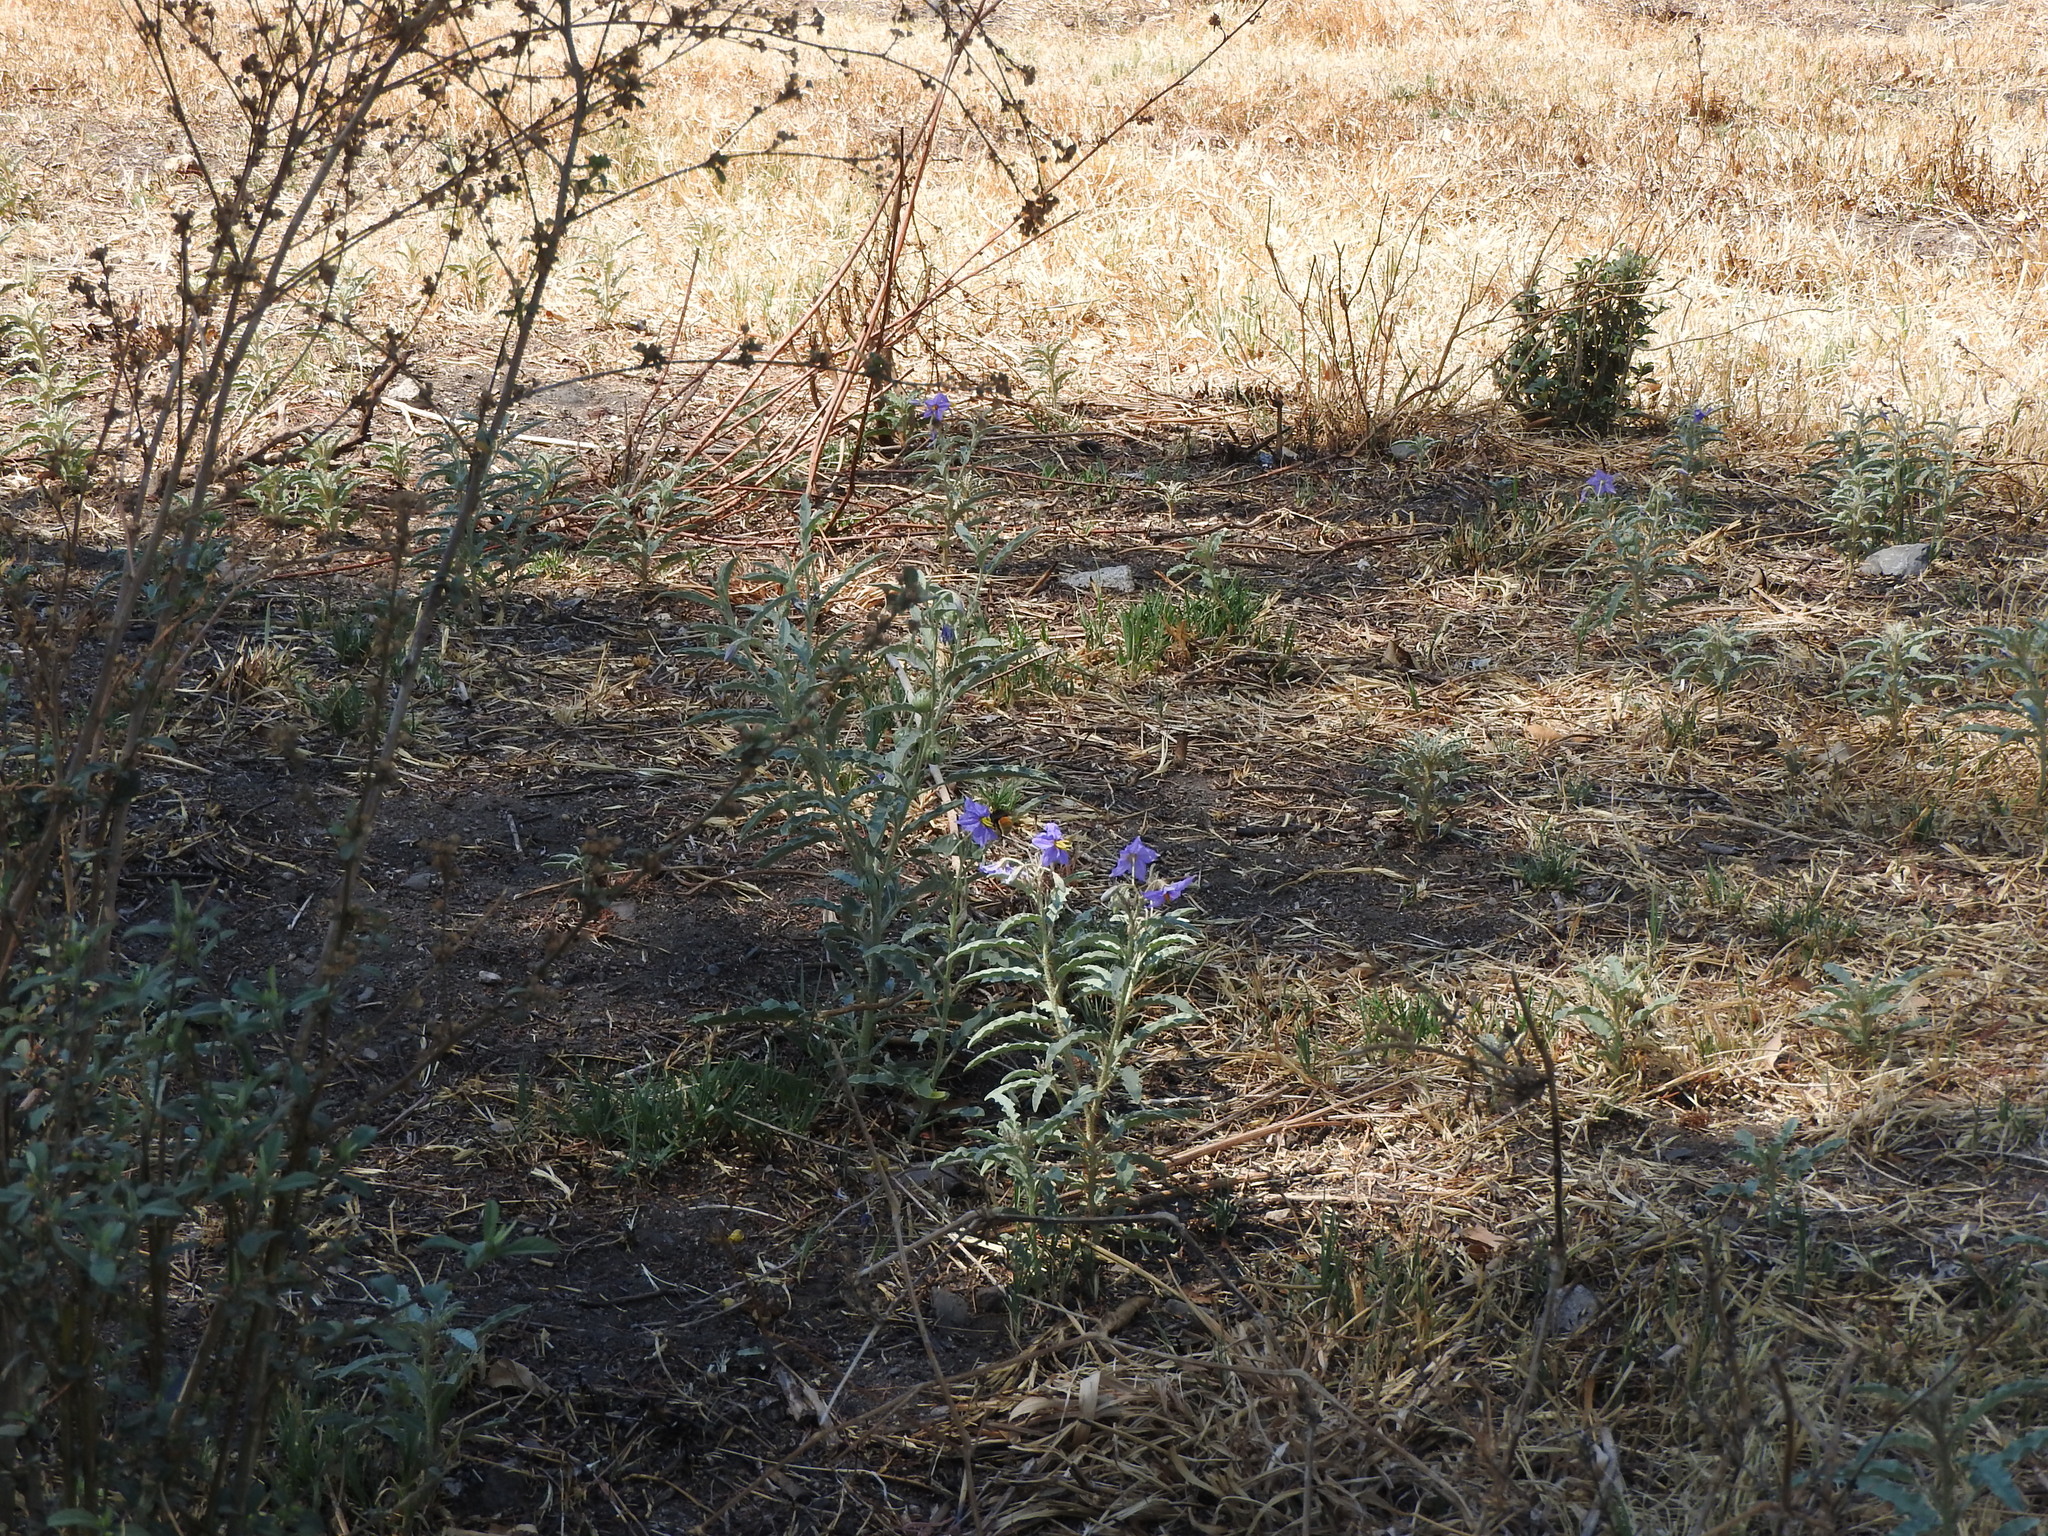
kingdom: Plantae
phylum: Tracheophyta
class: Magnoliopsida
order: Solanales
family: Solanaceae
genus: Solanum
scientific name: Solanum elaeagnifolium
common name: Silverleaf nightshade
